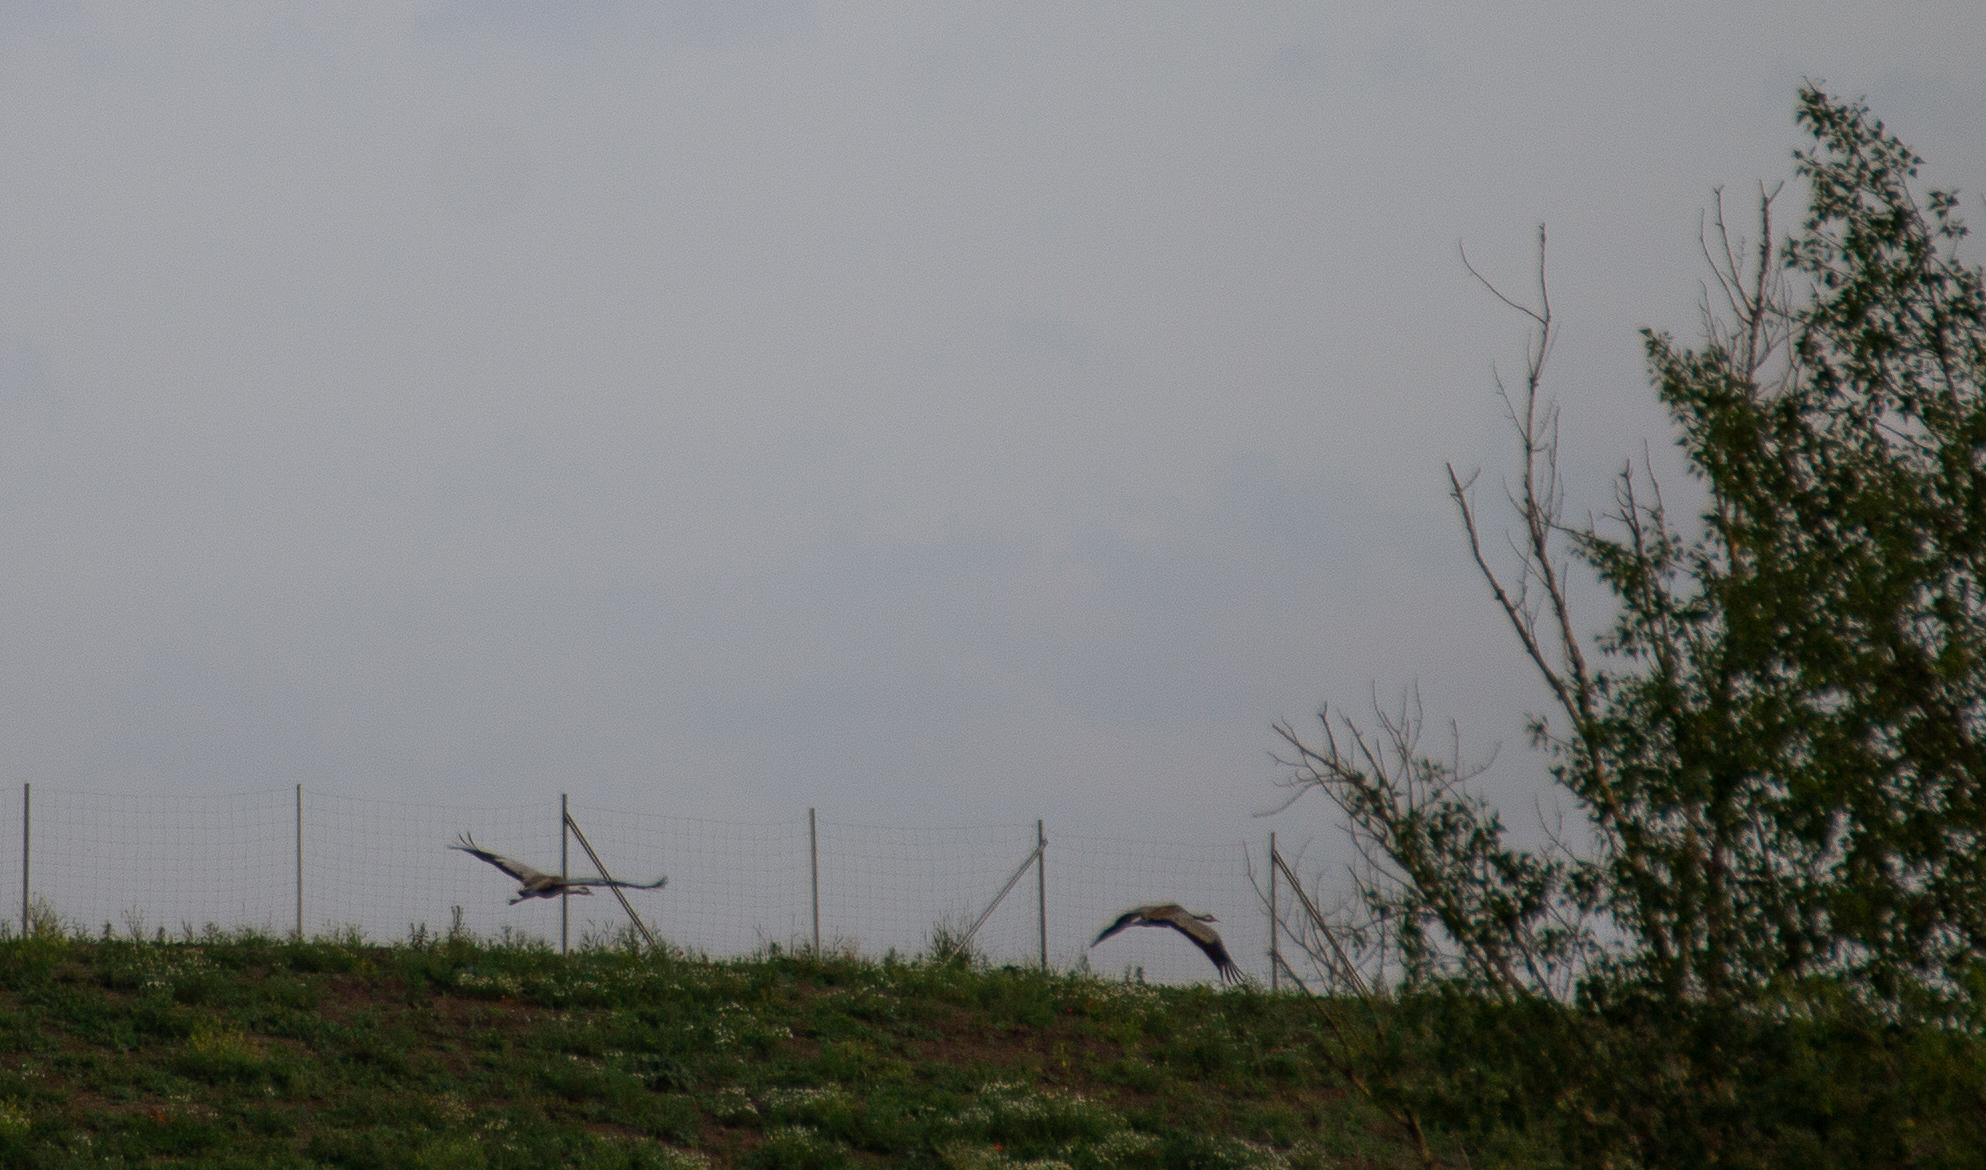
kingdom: Animalia
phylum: Chordata
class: Aves
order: Gruiformes
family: Gruidae
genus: Grus
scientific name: Grus grus
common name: Common crane
